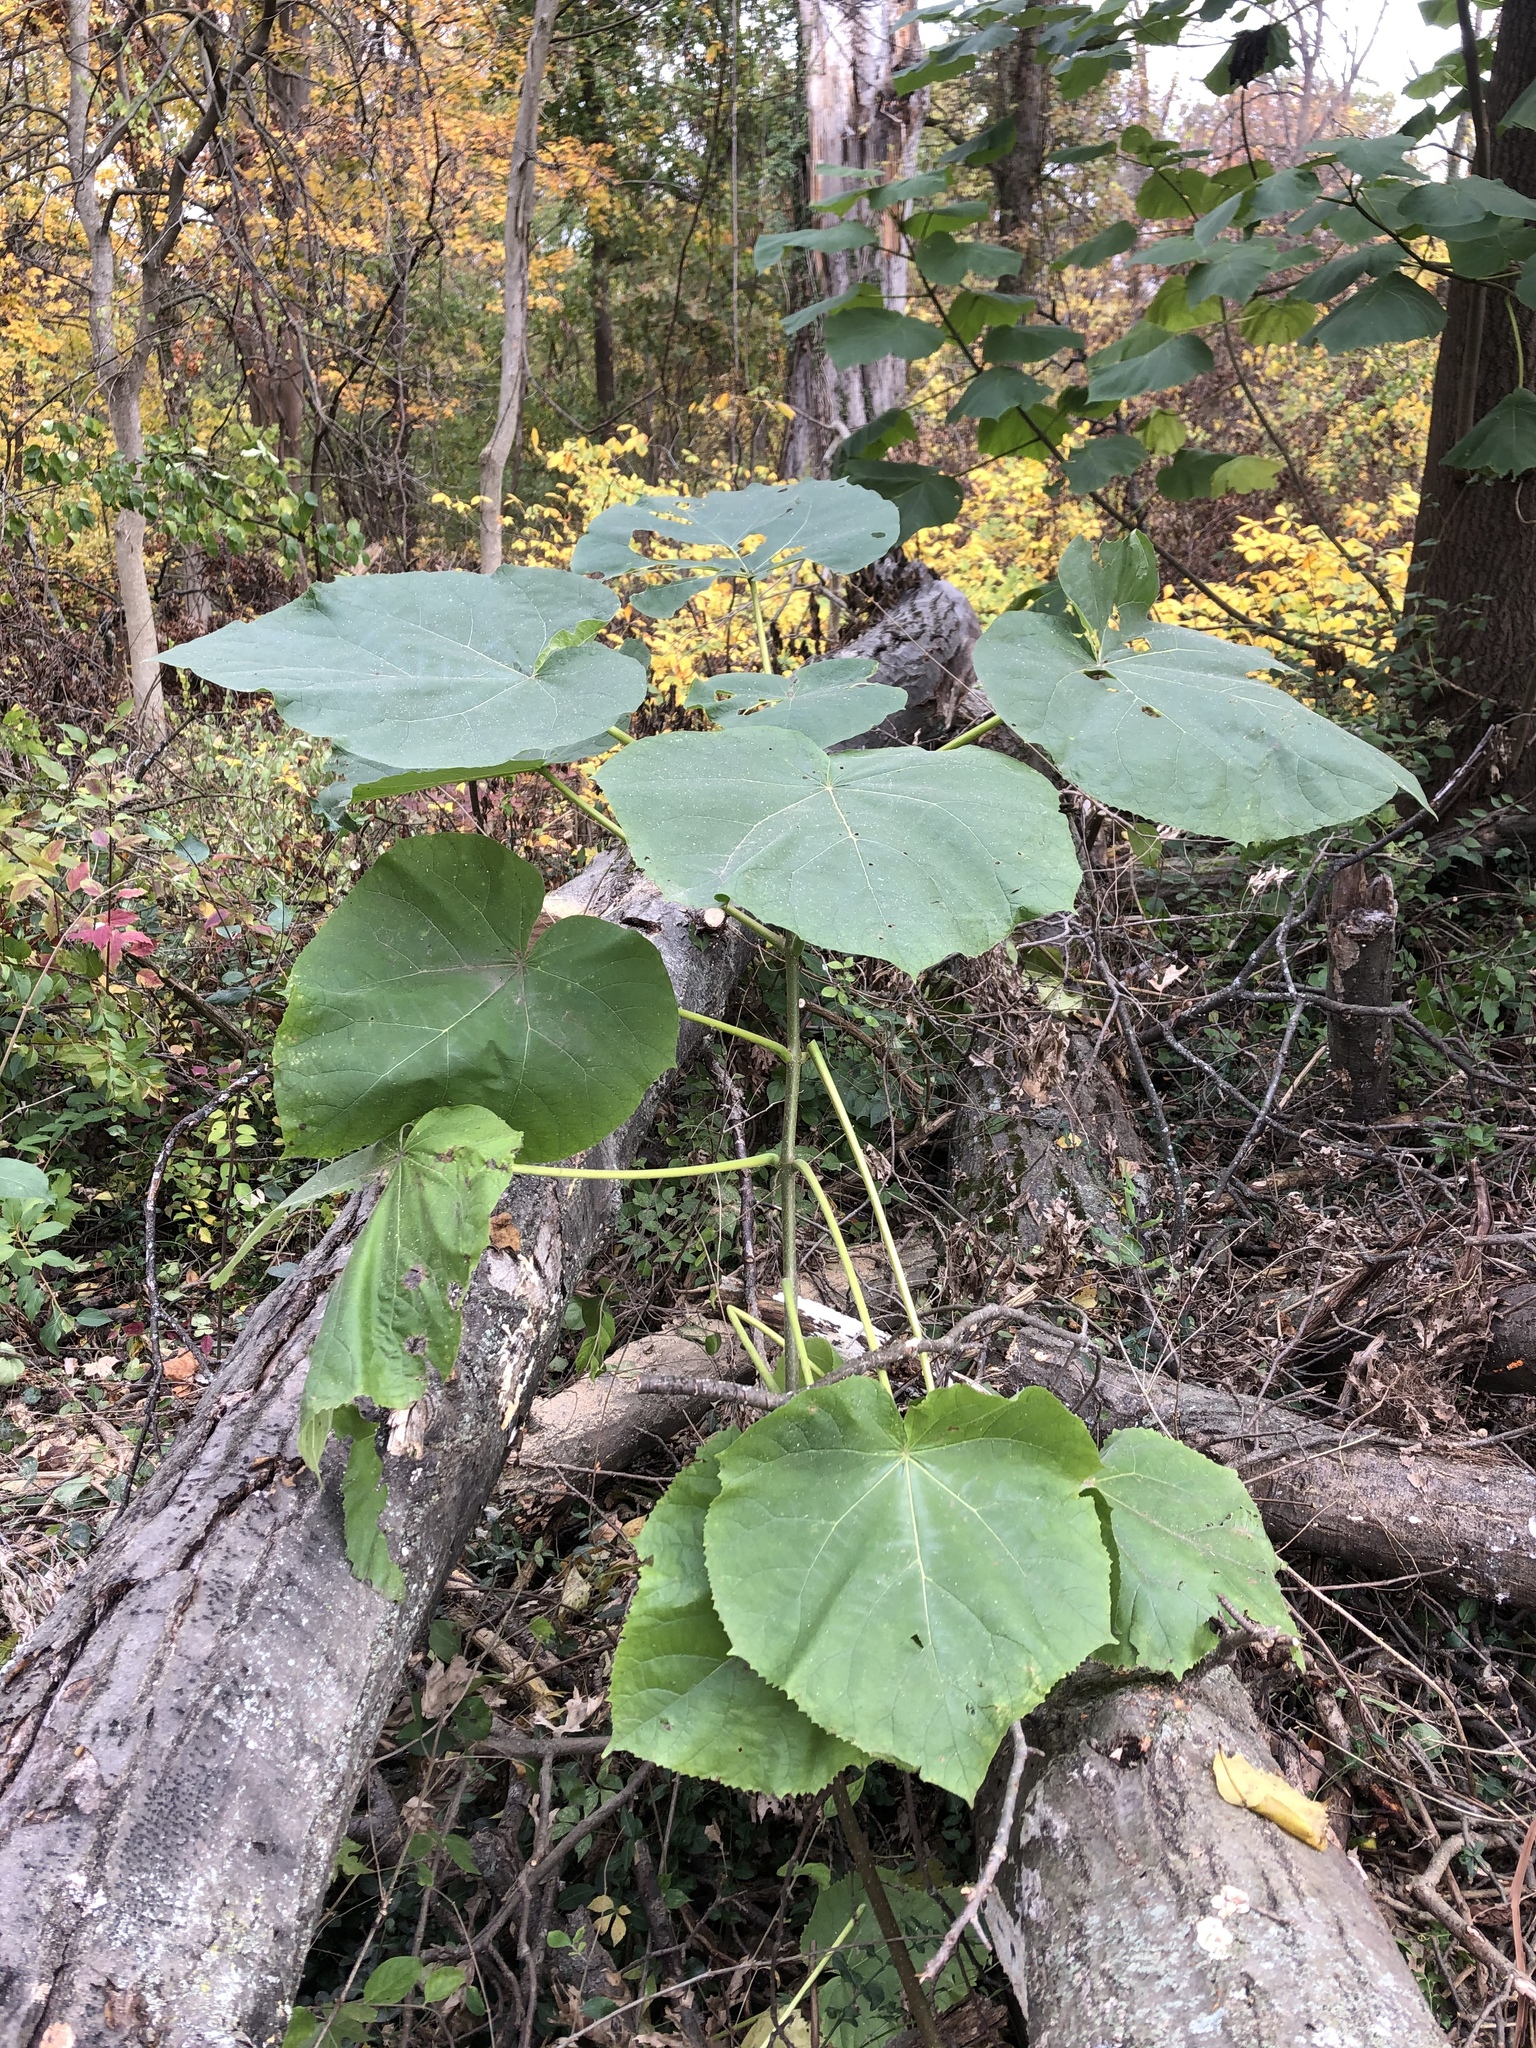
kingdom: Plantae
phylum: Tracheophyta
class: Magnoliopsida
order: Lamiales
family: Paulowniaceae
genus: Paulownia
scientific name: Paulownia tomentosa
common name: Foxglove-tree
